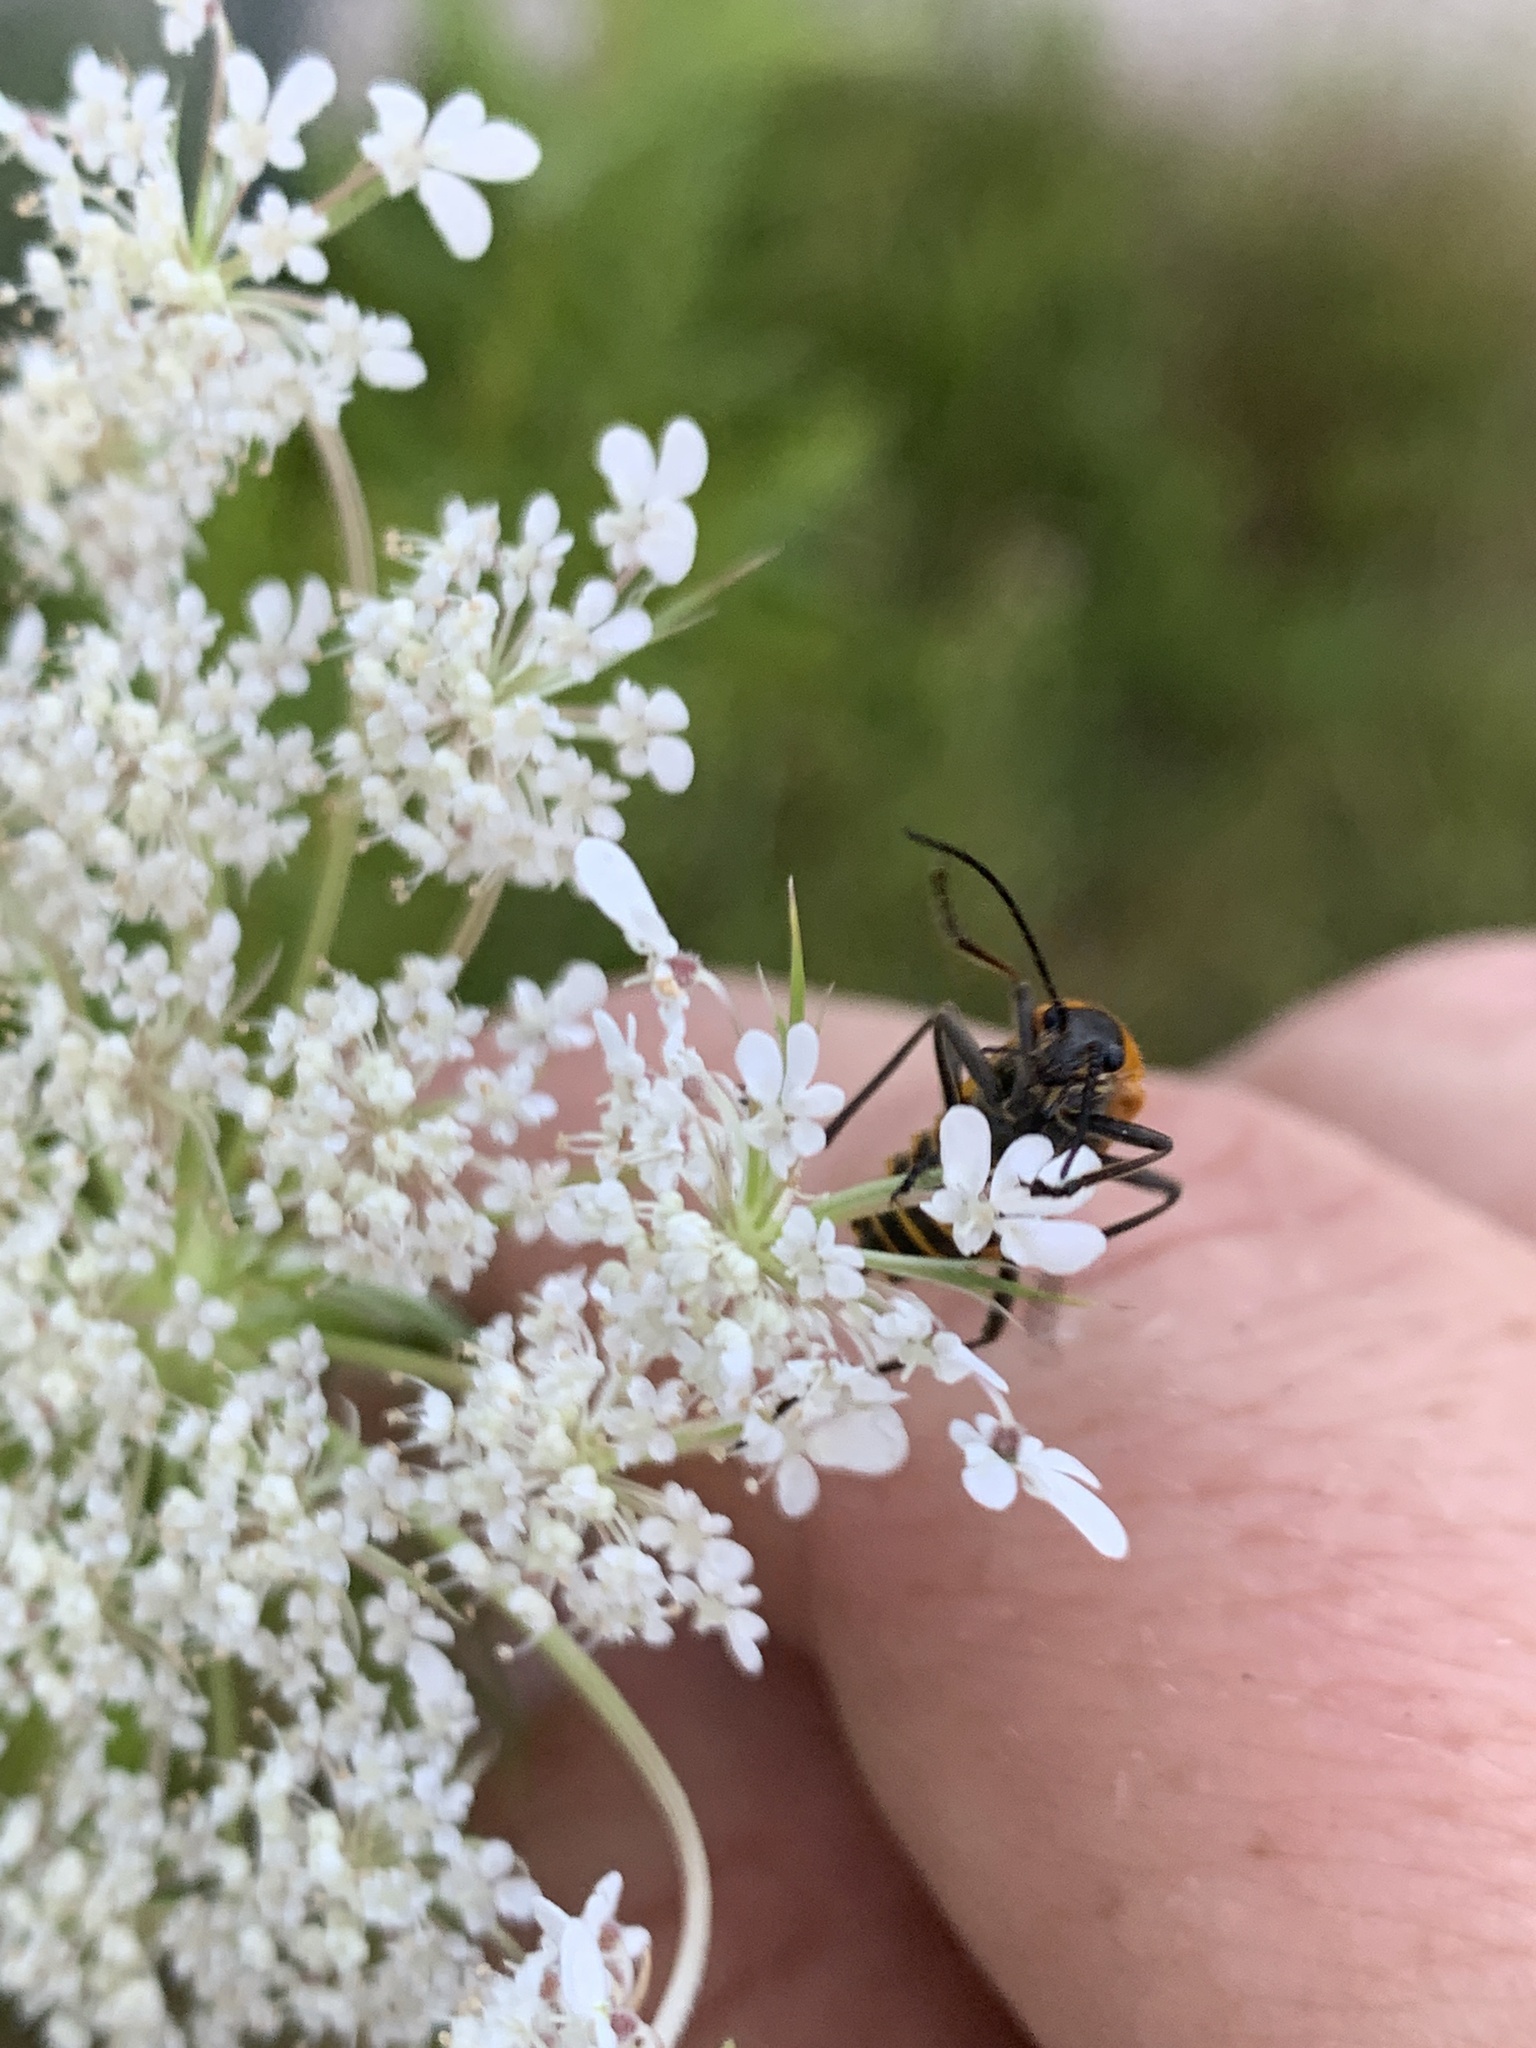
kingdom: Animalia
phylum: Arthropoda
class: Insecta
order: Coleoptera
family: Cantharidae
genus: Chauliognathus
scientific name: Chauliognathus pensylvanicus
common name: Goldenrod soldier beetle
